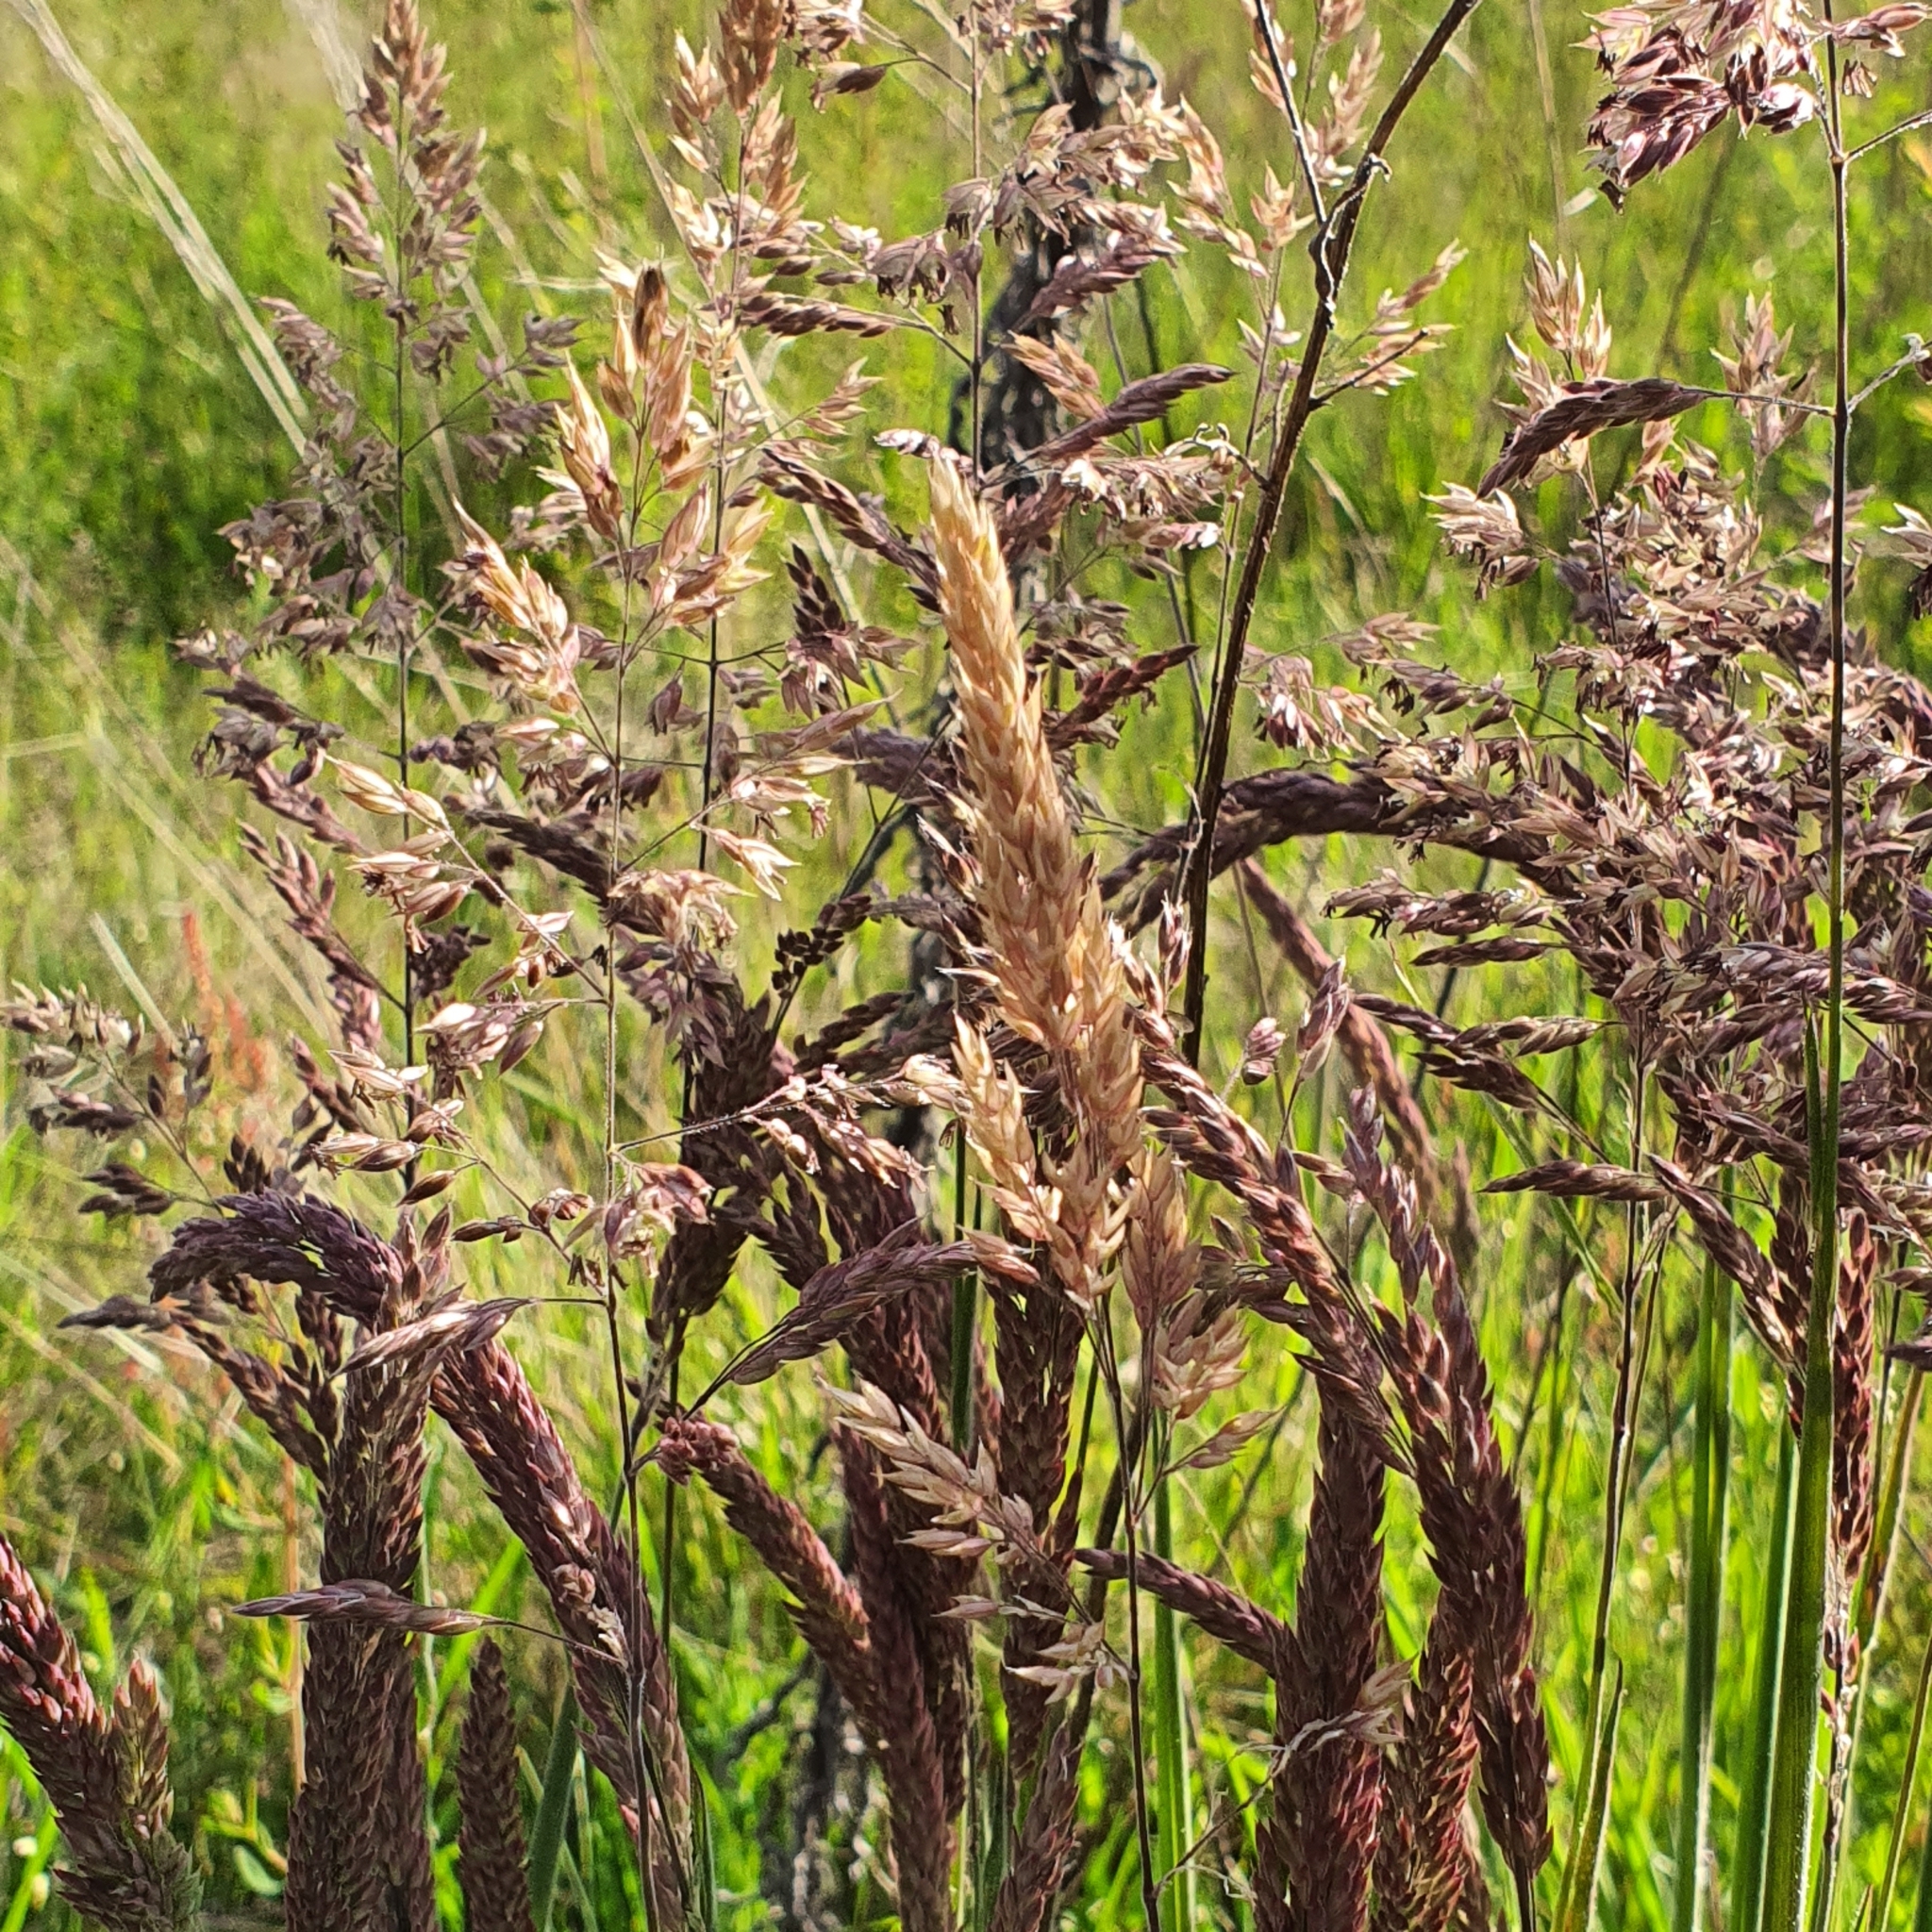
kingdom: Plantae
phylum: Tracheophyta
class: Liliopsida
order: Poales
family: Poaceae
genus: Holcus
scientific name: Holcus lanatus
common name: Yorkshire-fog
